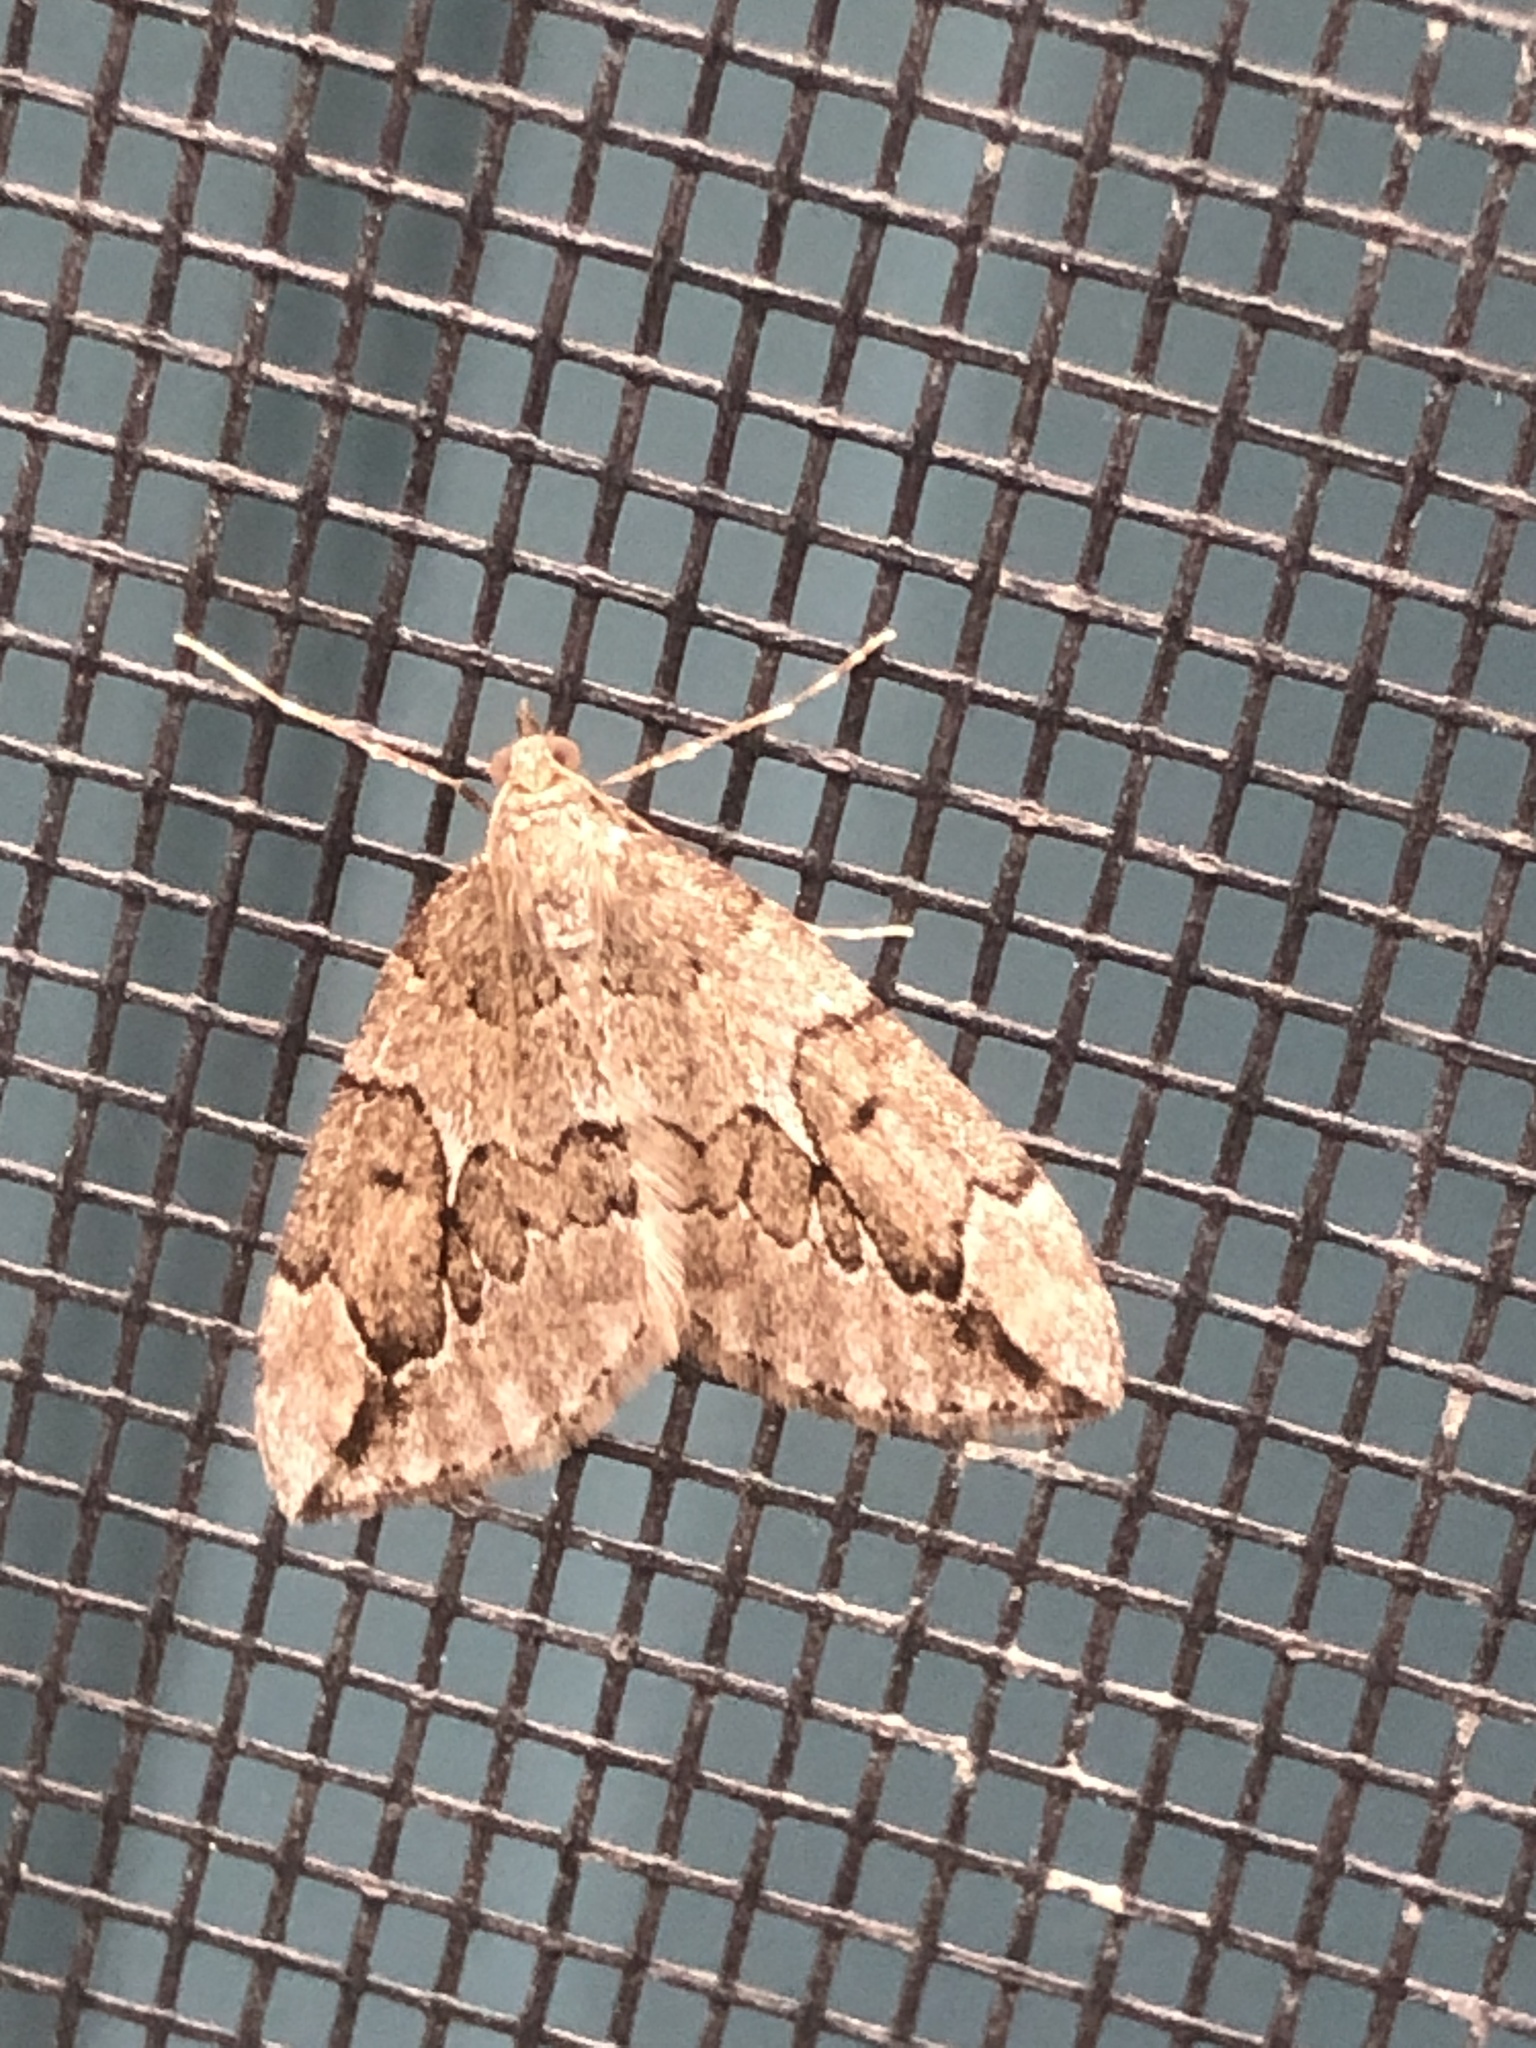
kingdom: Animalia
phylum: Arthropoda
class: Insecta
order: Lepidoptera
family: Geometridae
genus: Thera
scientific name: Thera juniperata
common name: Juniper carpet
